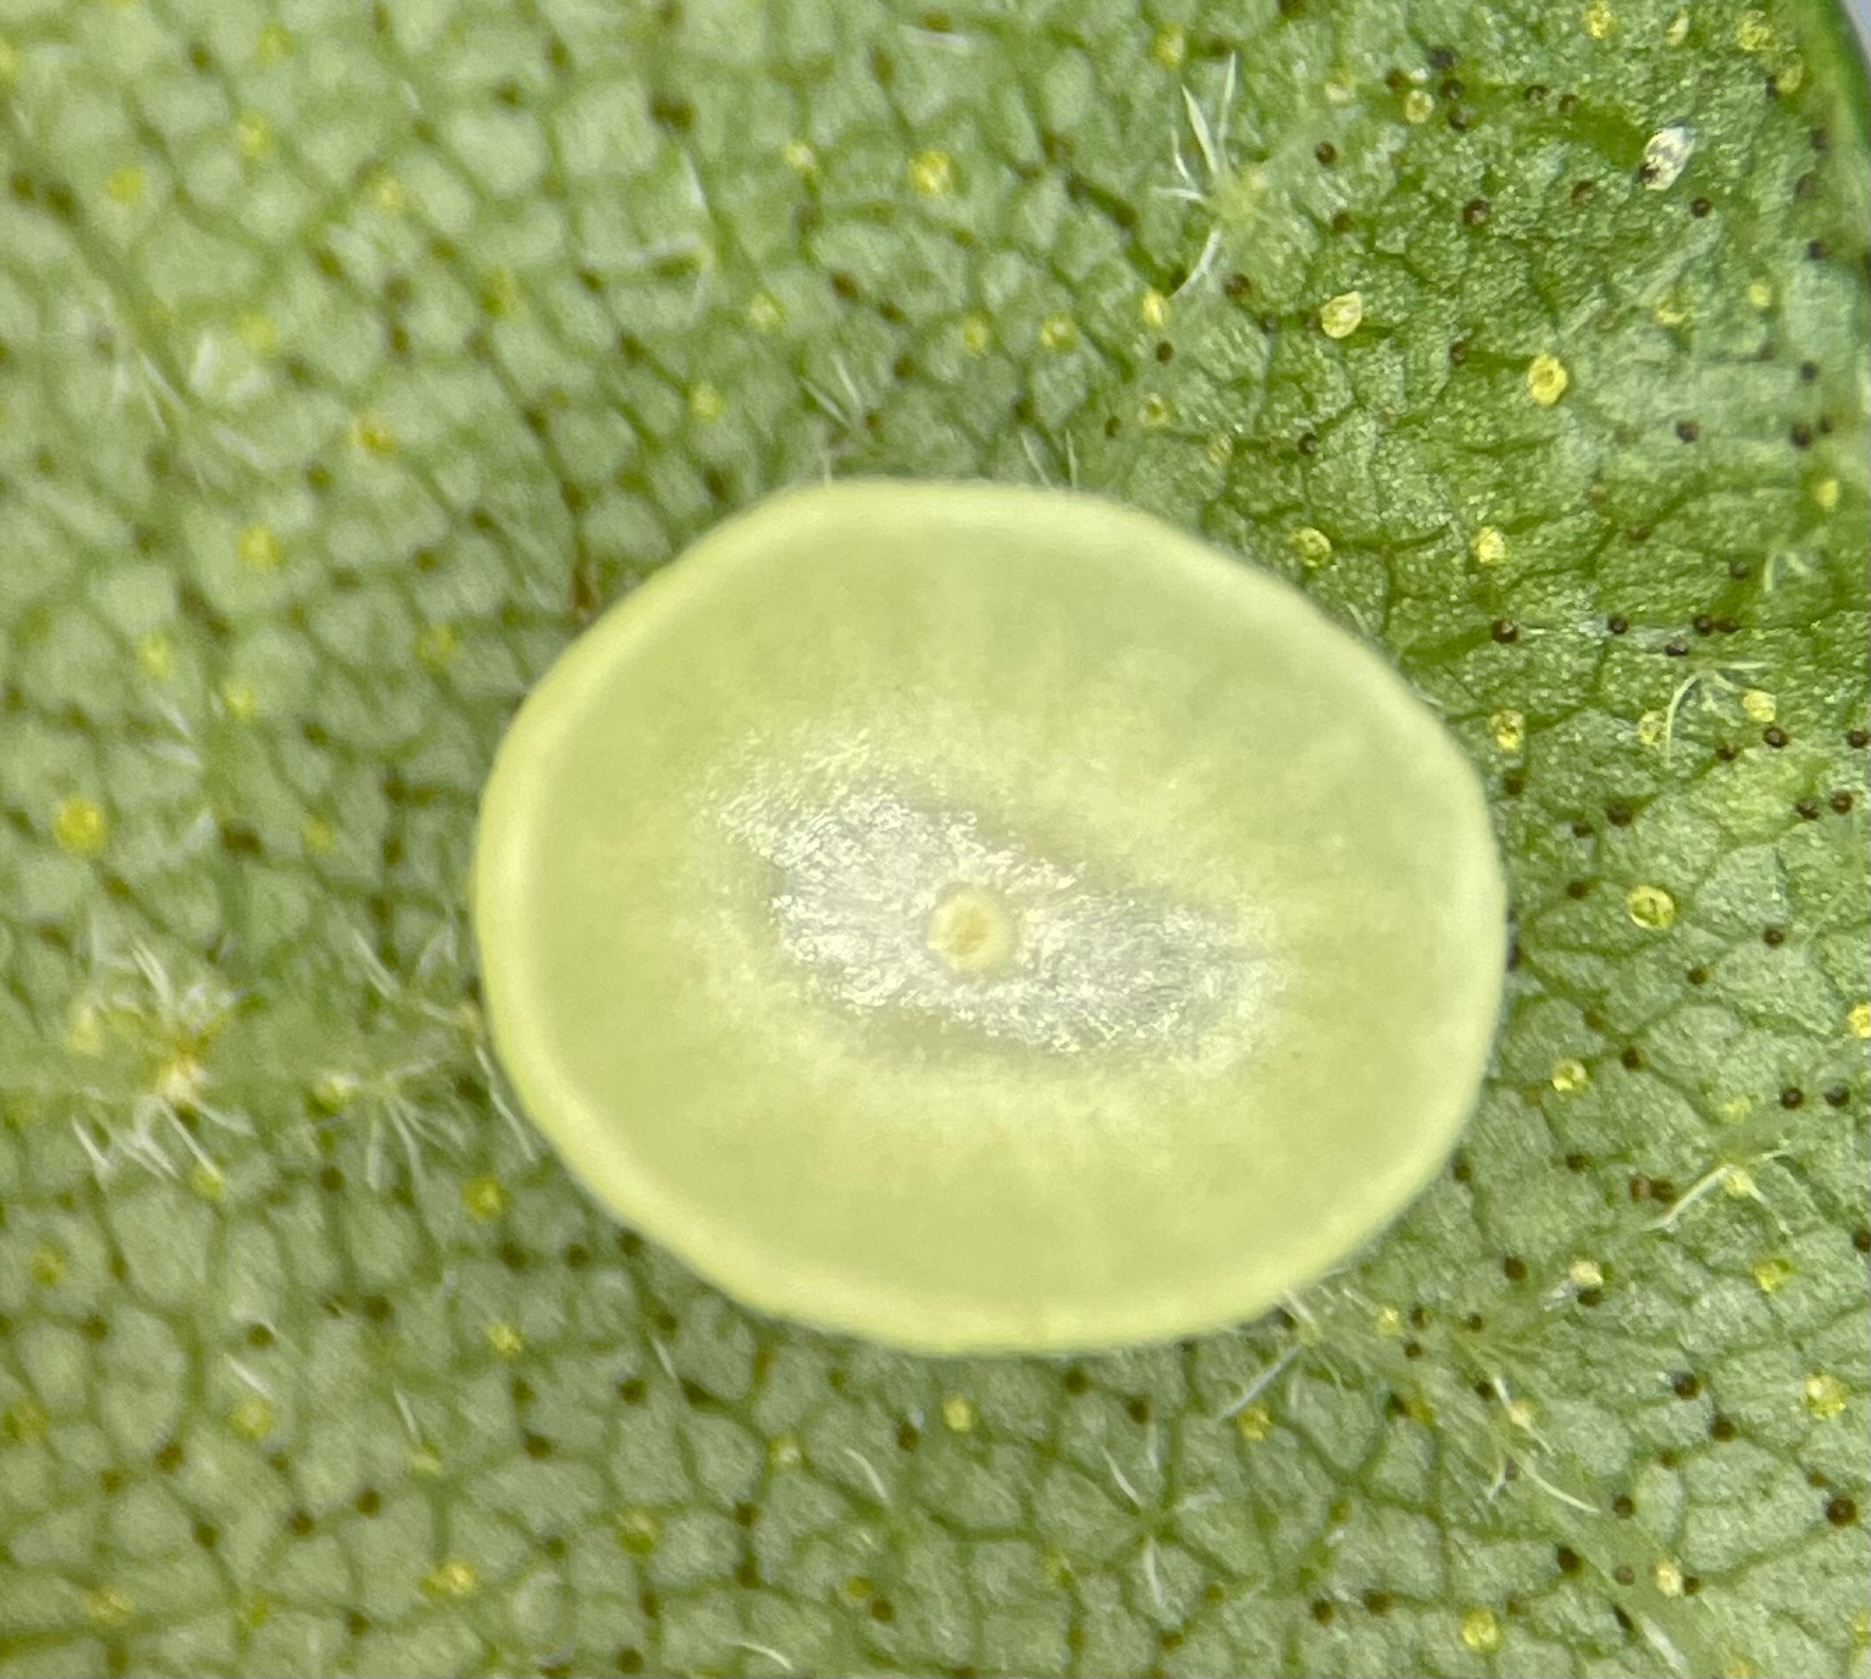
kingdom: Animalia
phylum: Arthropoda
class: Insecta
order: Diptera
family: Cecidomyiidae
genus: Caryomyia
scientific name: Caryomyia flaticrustum
